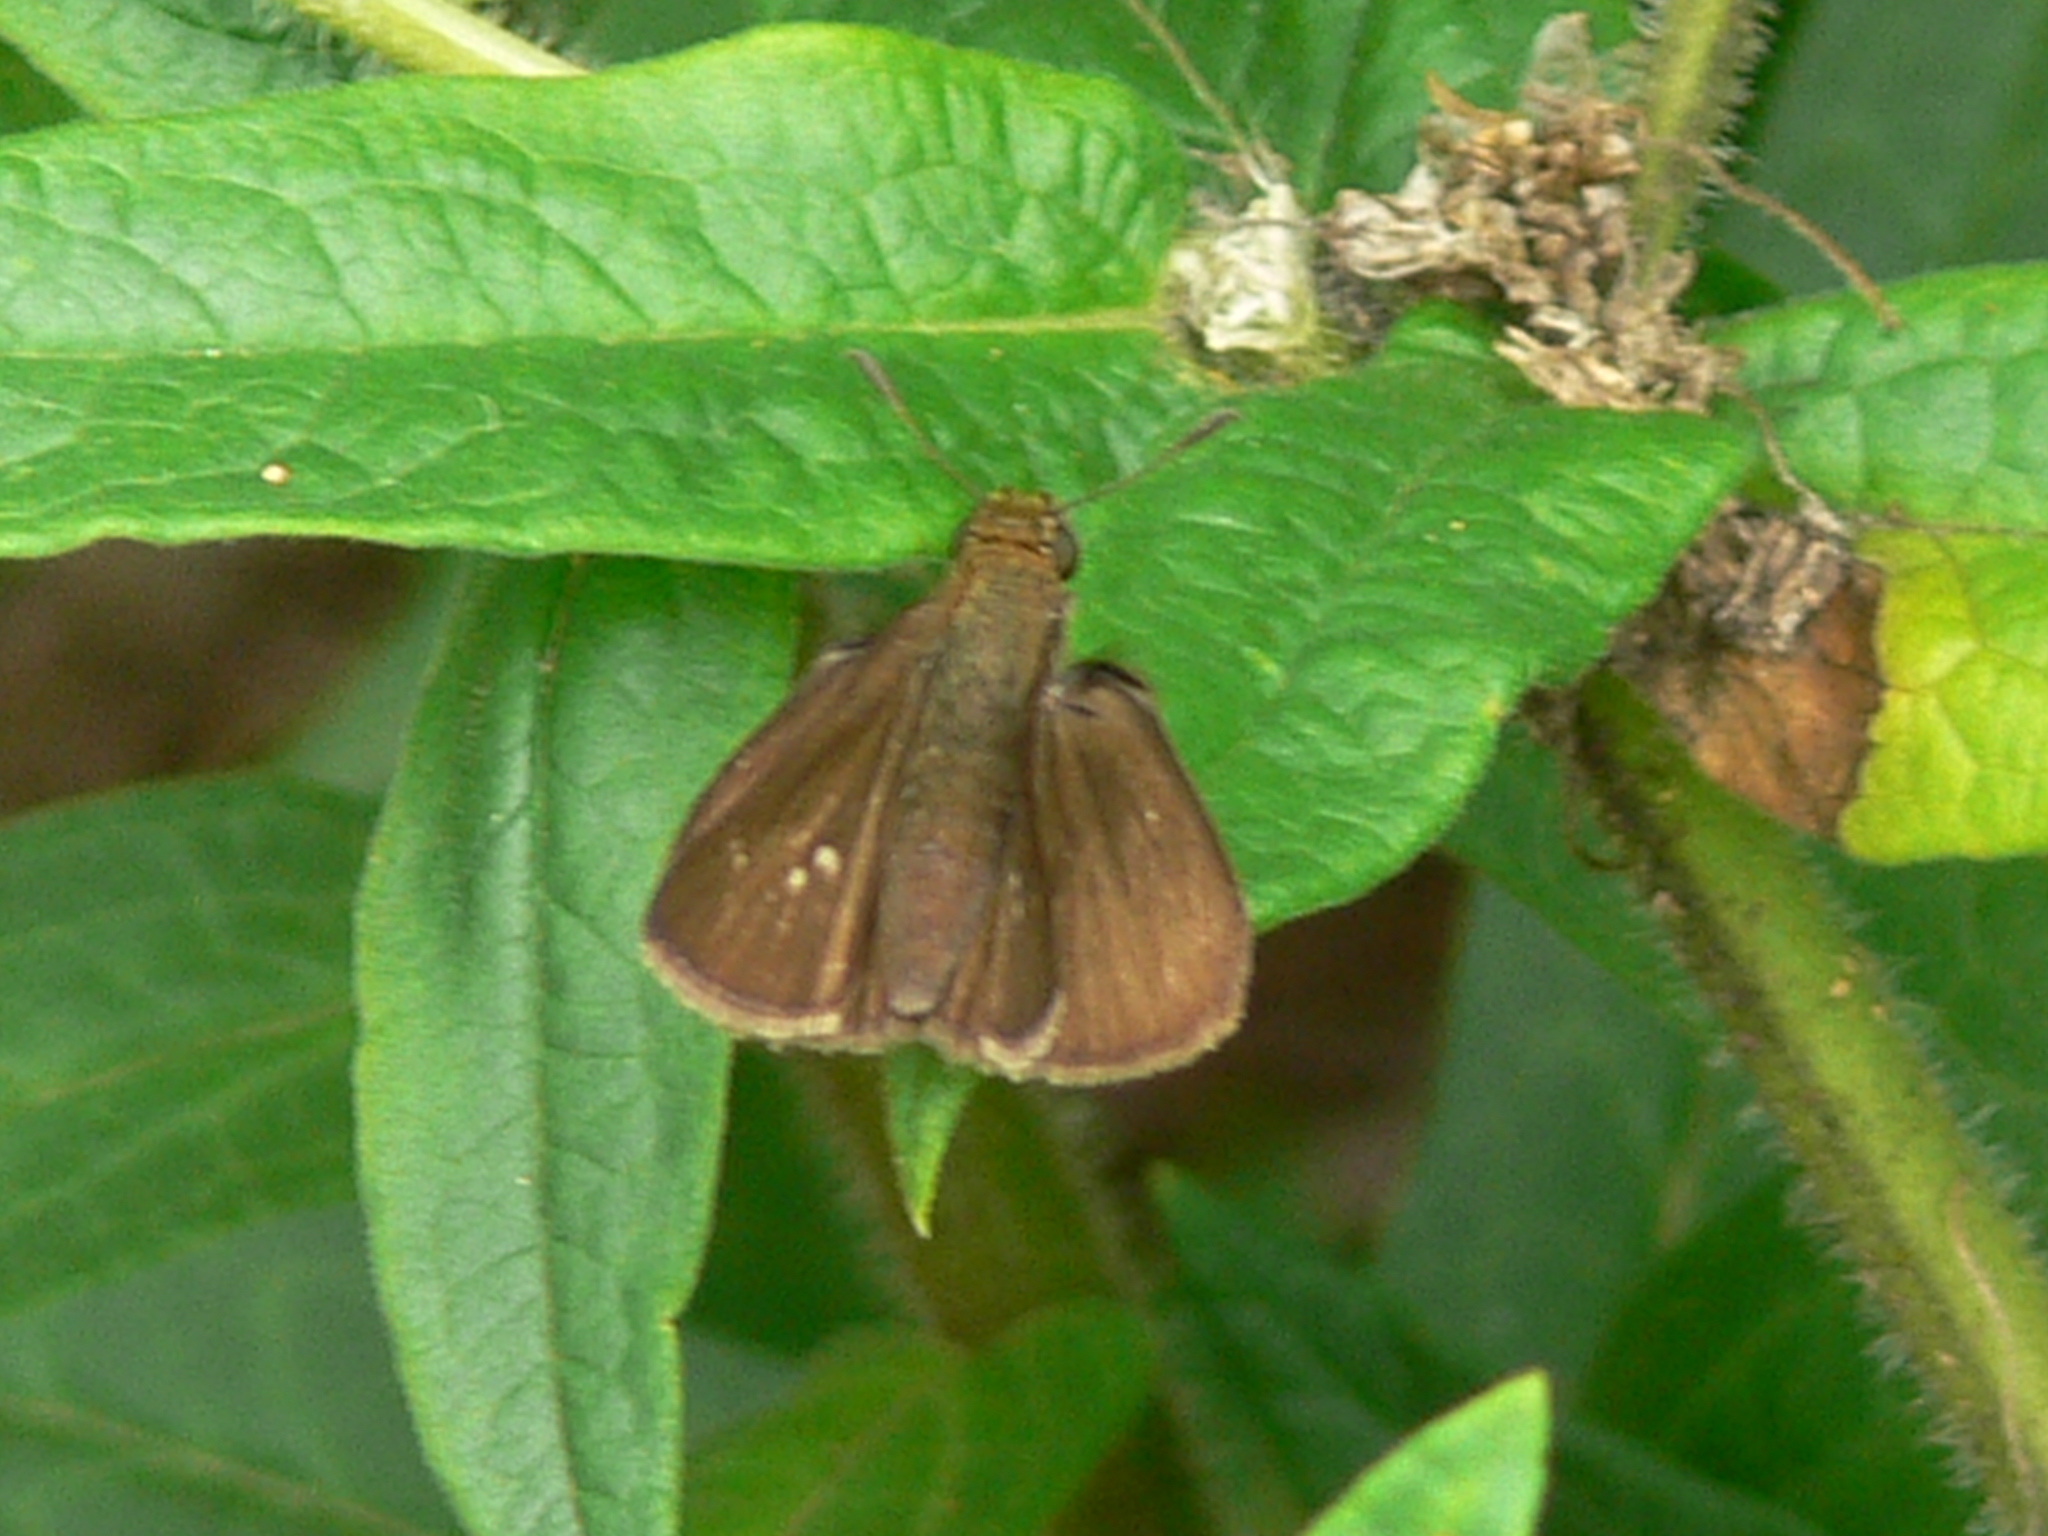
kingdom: Animalia
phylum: Arthropoda
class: Insecta
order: Lepidoptera
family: Hesperiidae
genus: Euphyes
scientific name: Euphyes vestris
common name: Dun skipper
